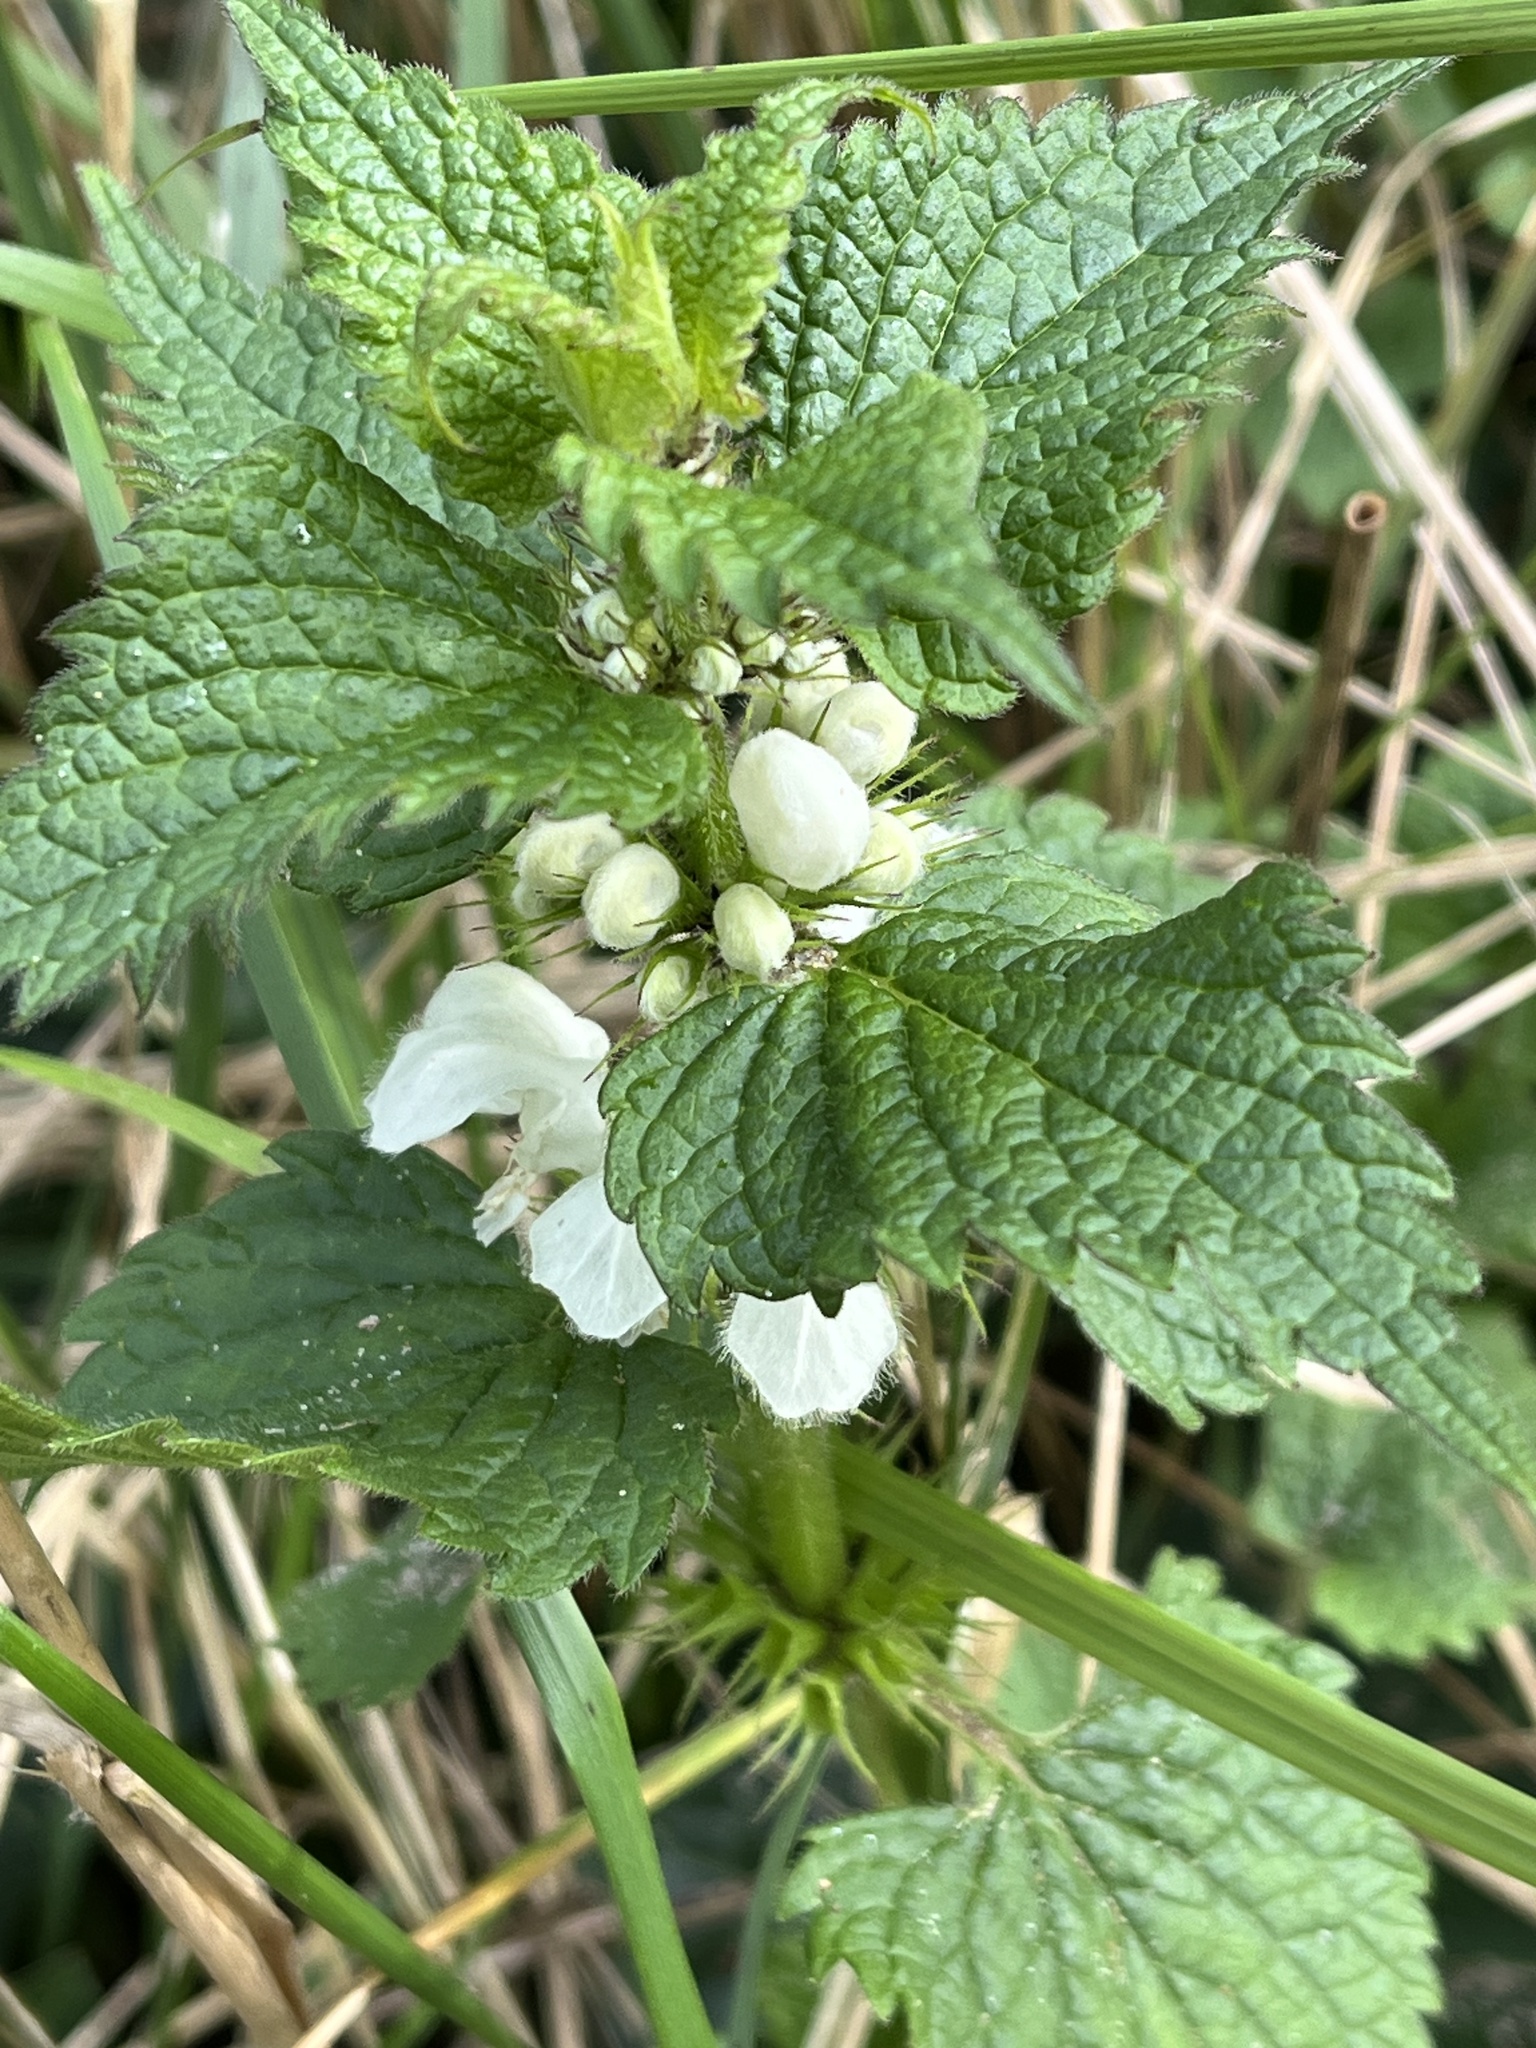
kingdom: Plantae
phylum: Tracheophyta
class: Magnoliopsida
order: Lamiales
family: Lamiaceae
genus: Lamium
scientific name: Lamium album
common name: White dead-nettle
